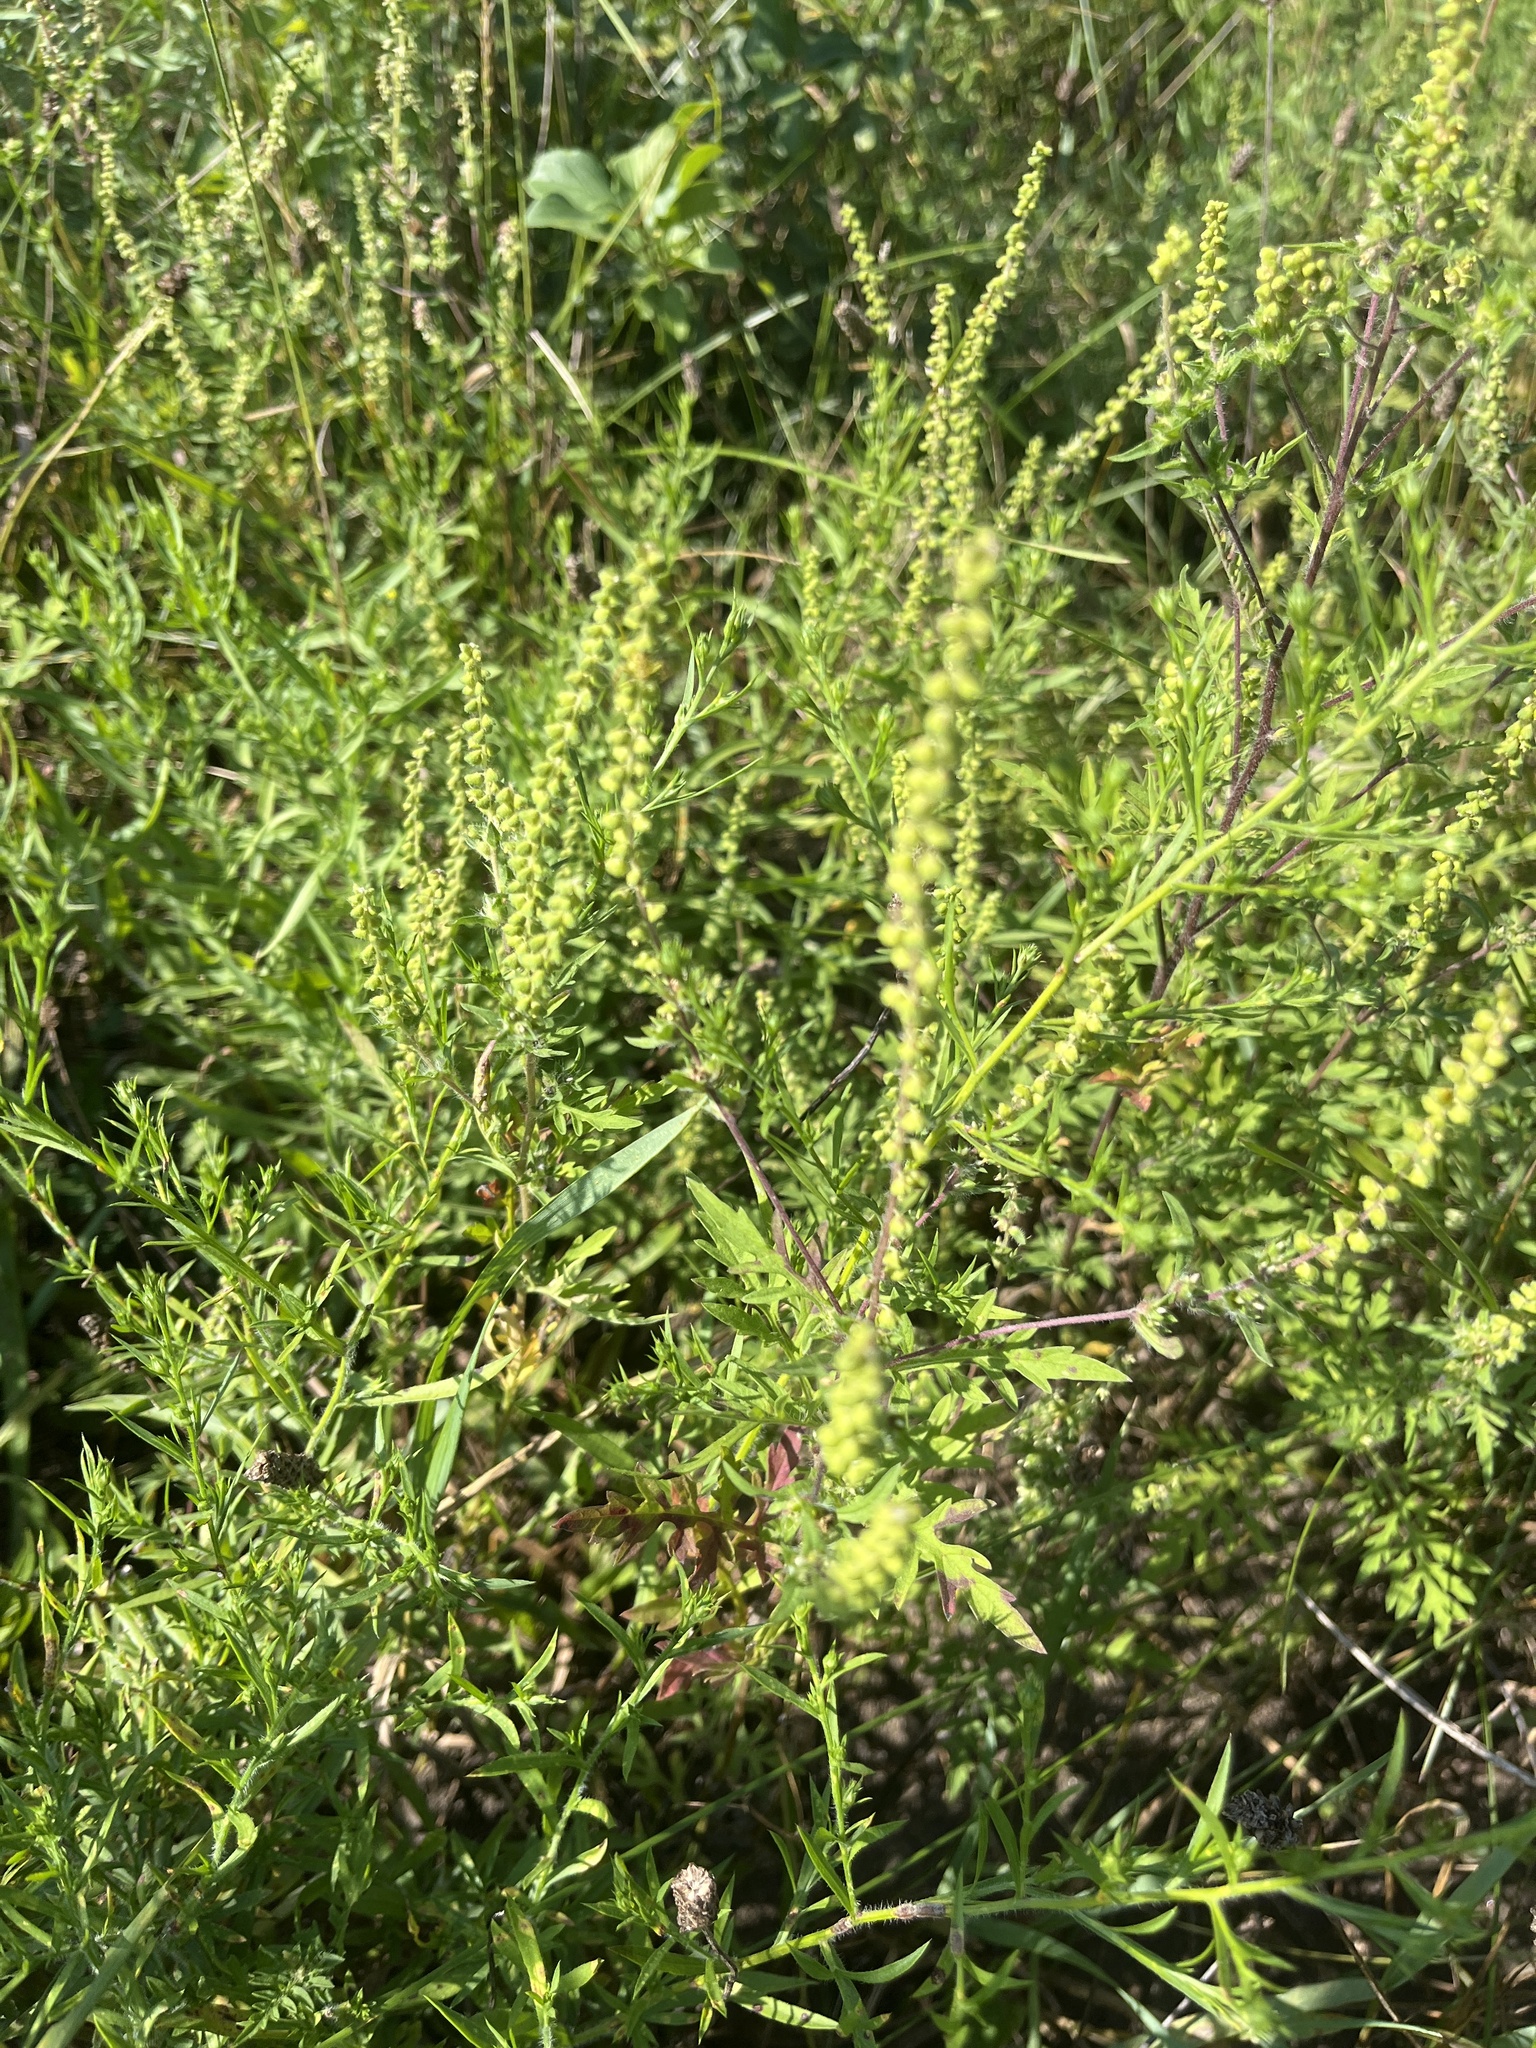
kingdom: Plantae
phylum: Tracheophyta
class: Magnoliopsida
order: Asterales
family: Asteraceae
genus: Ambrosia
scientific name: Ambrosia artemisiifolia
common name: Annual ragweed
